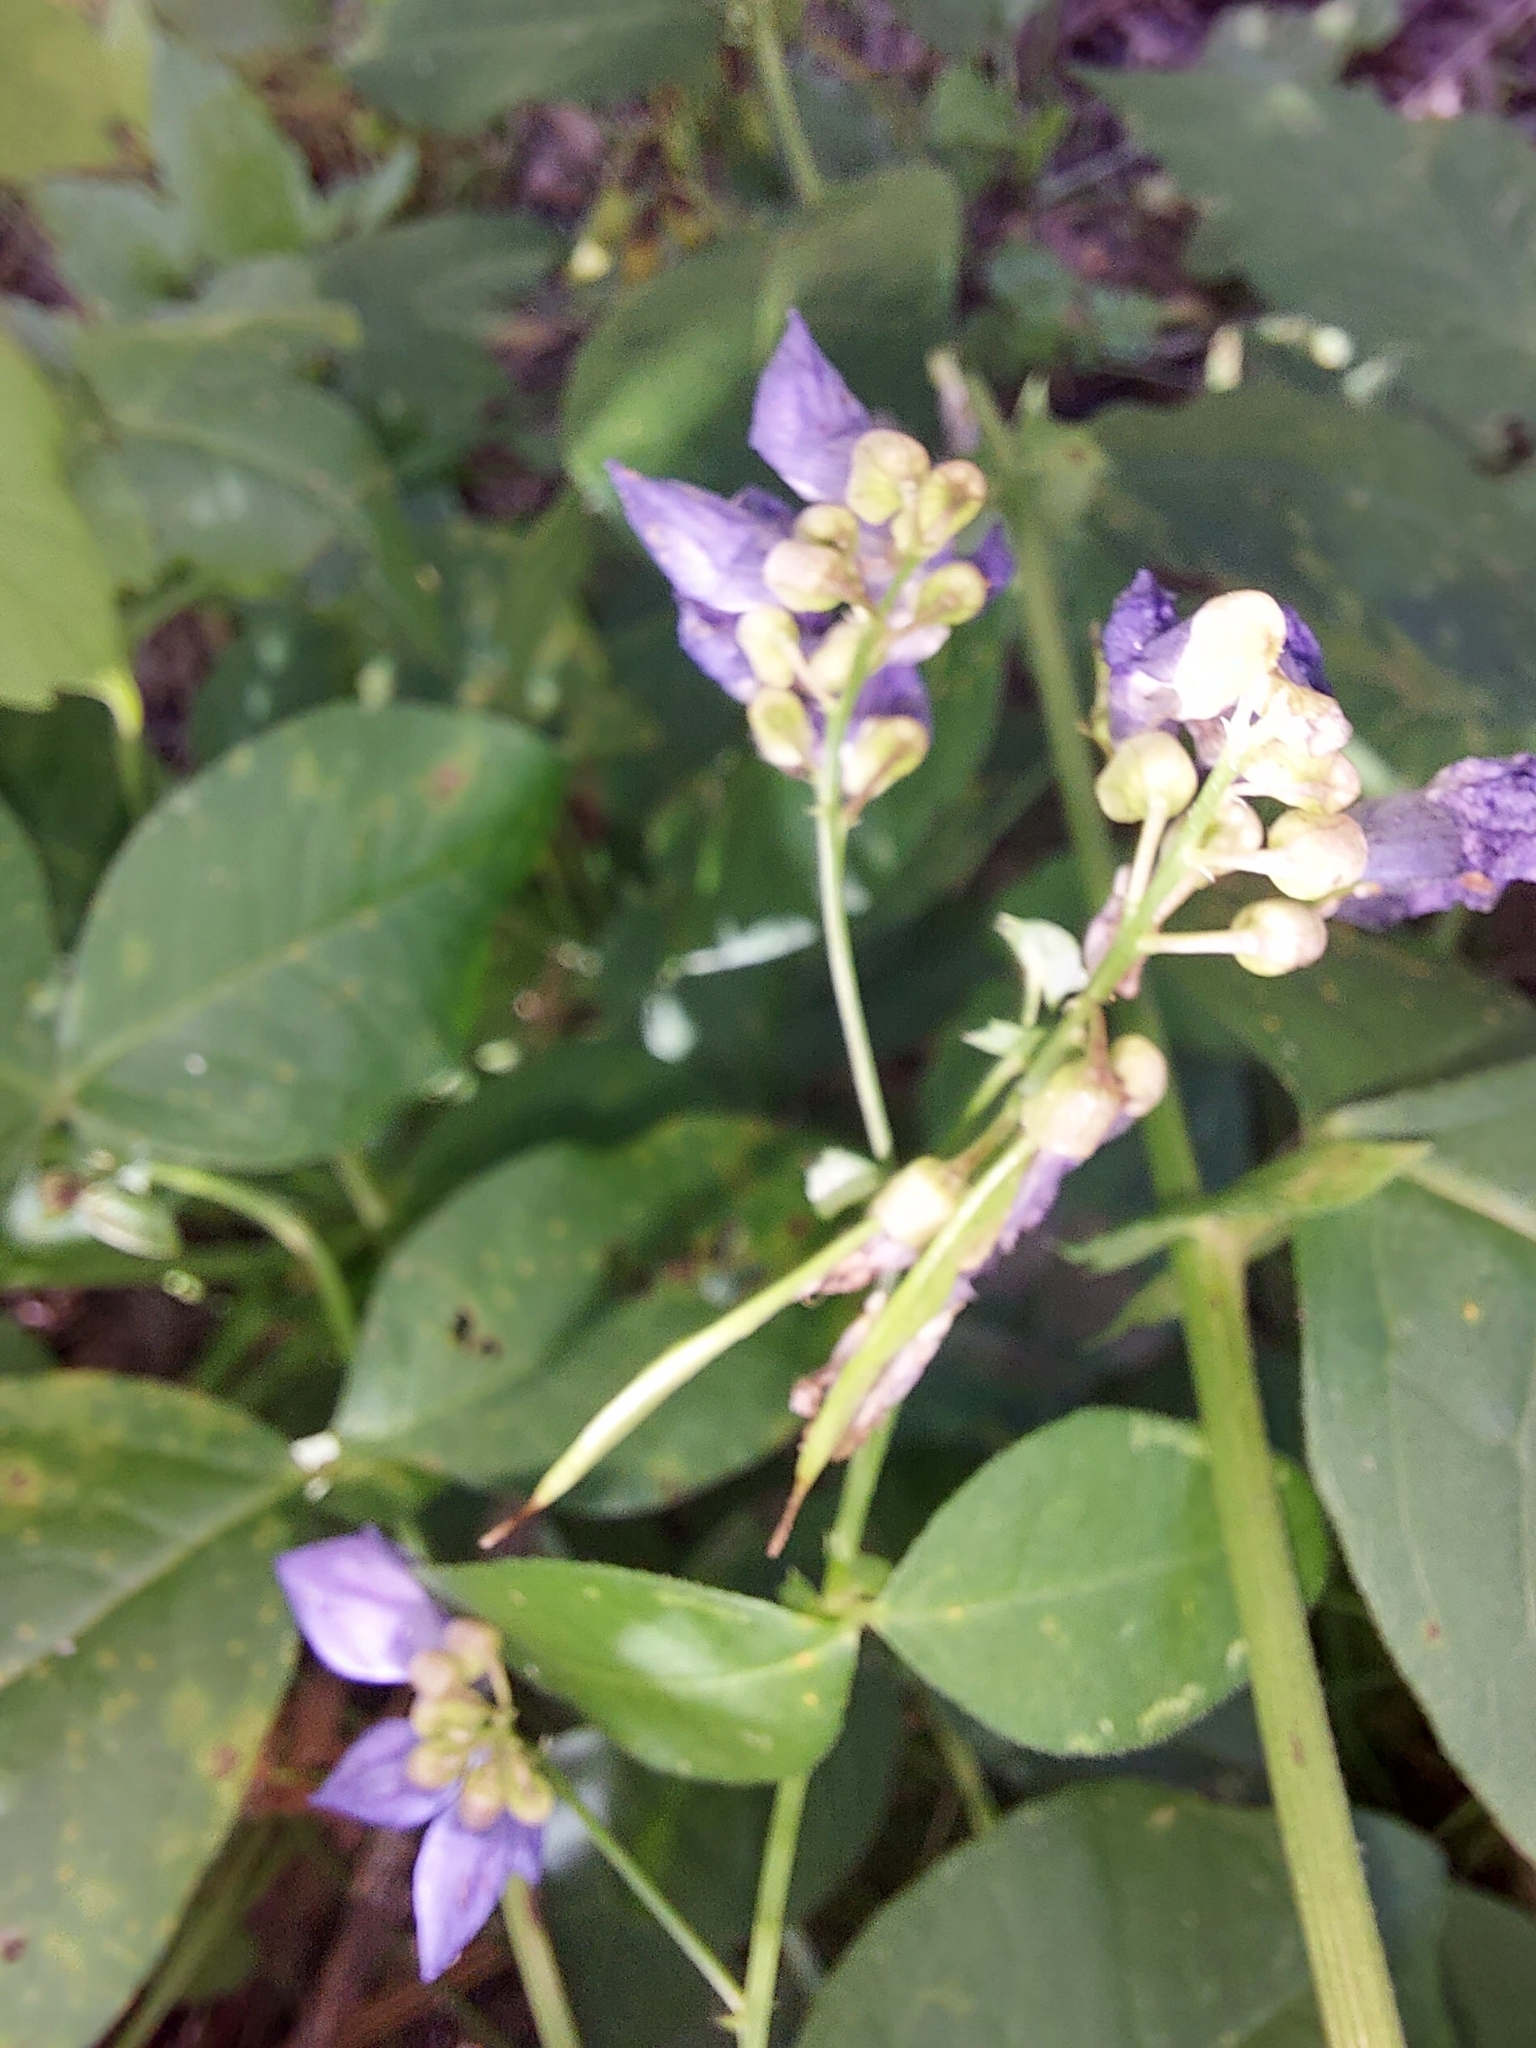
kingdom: Plantae
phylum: Tracheophyta
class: Magnoliopsida
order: Fabales
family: Fabaceae
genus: Vicia
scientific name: Vicia unijuga
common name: Two-leaf vetch
